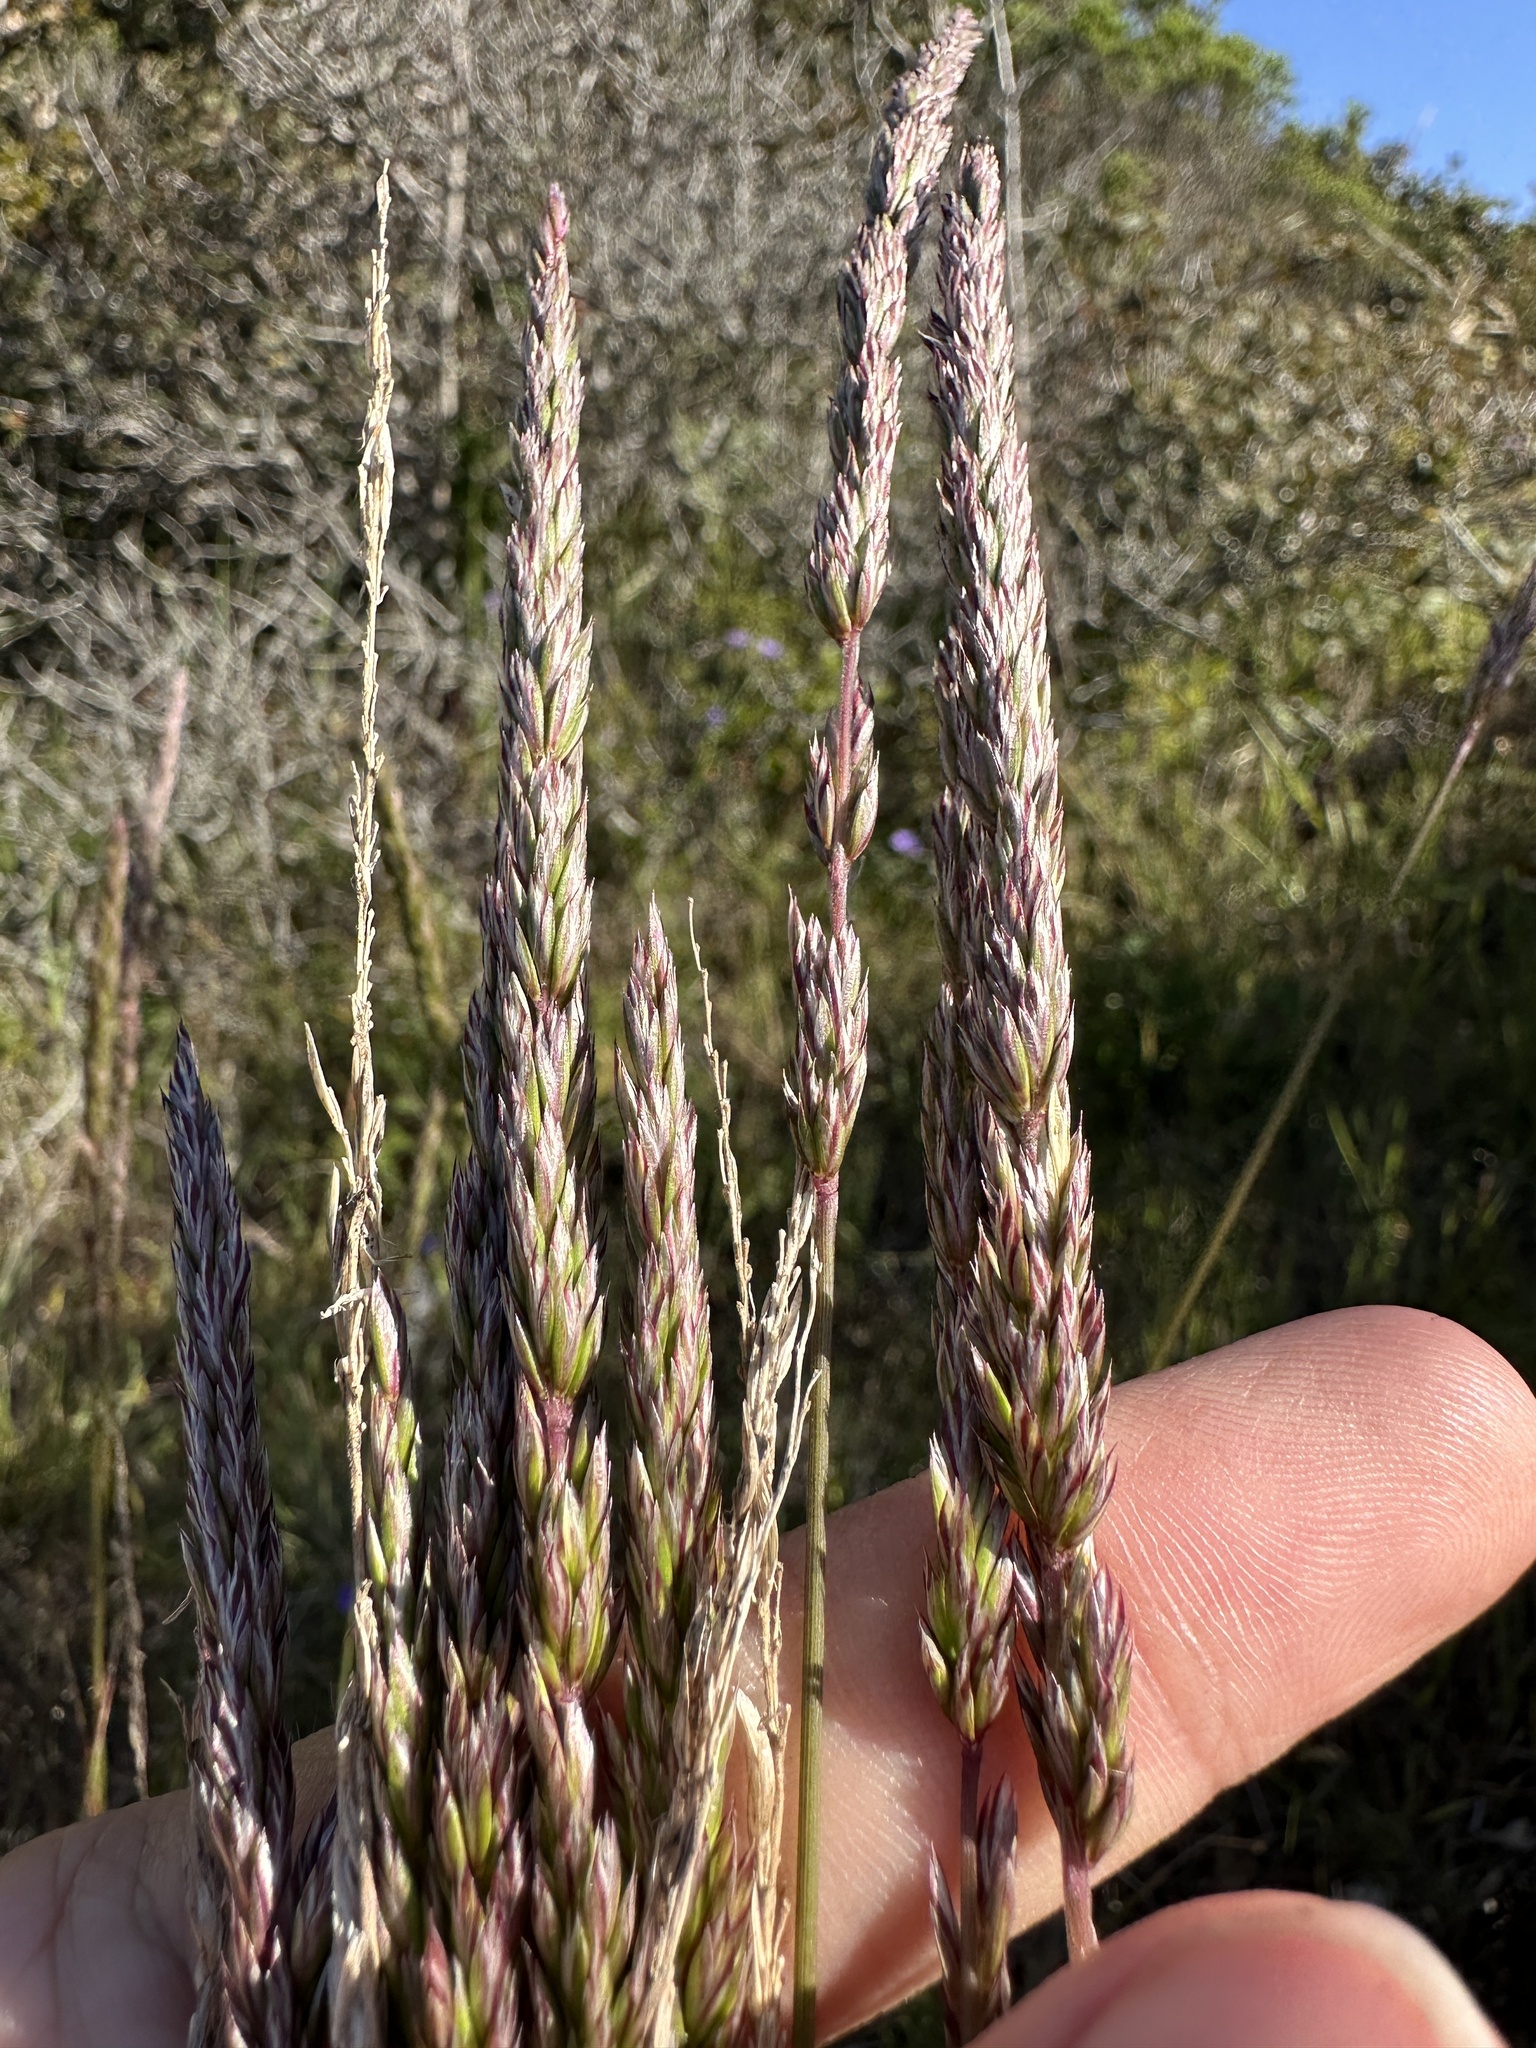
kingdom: Plantae
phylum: Tracheophyta
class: Liliopsida
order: Poales
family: Poaceae
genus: Koeleria
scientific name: Koeleria macrantha
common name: Crested hair-grass
